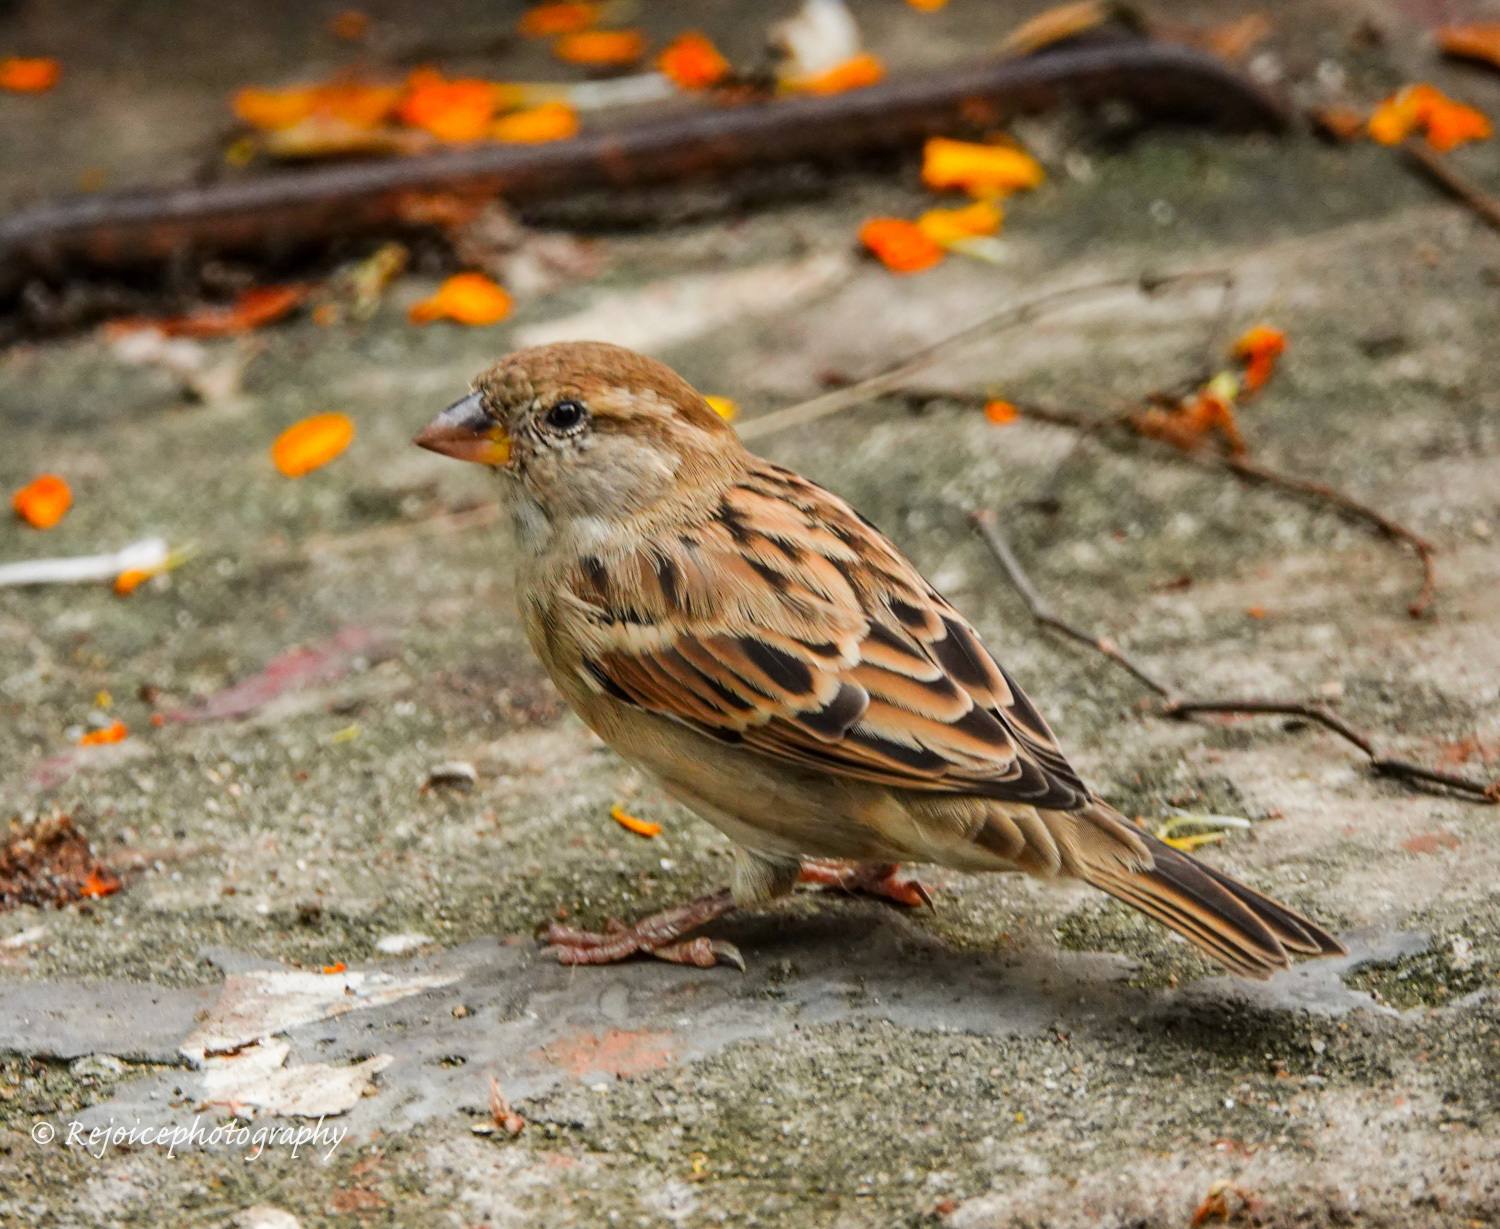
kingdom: Animalia
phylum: Chordata
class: Aves
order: Passeriformes
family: Passeridae
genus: Passer
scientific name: Passer domesticus
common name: House sparrow
